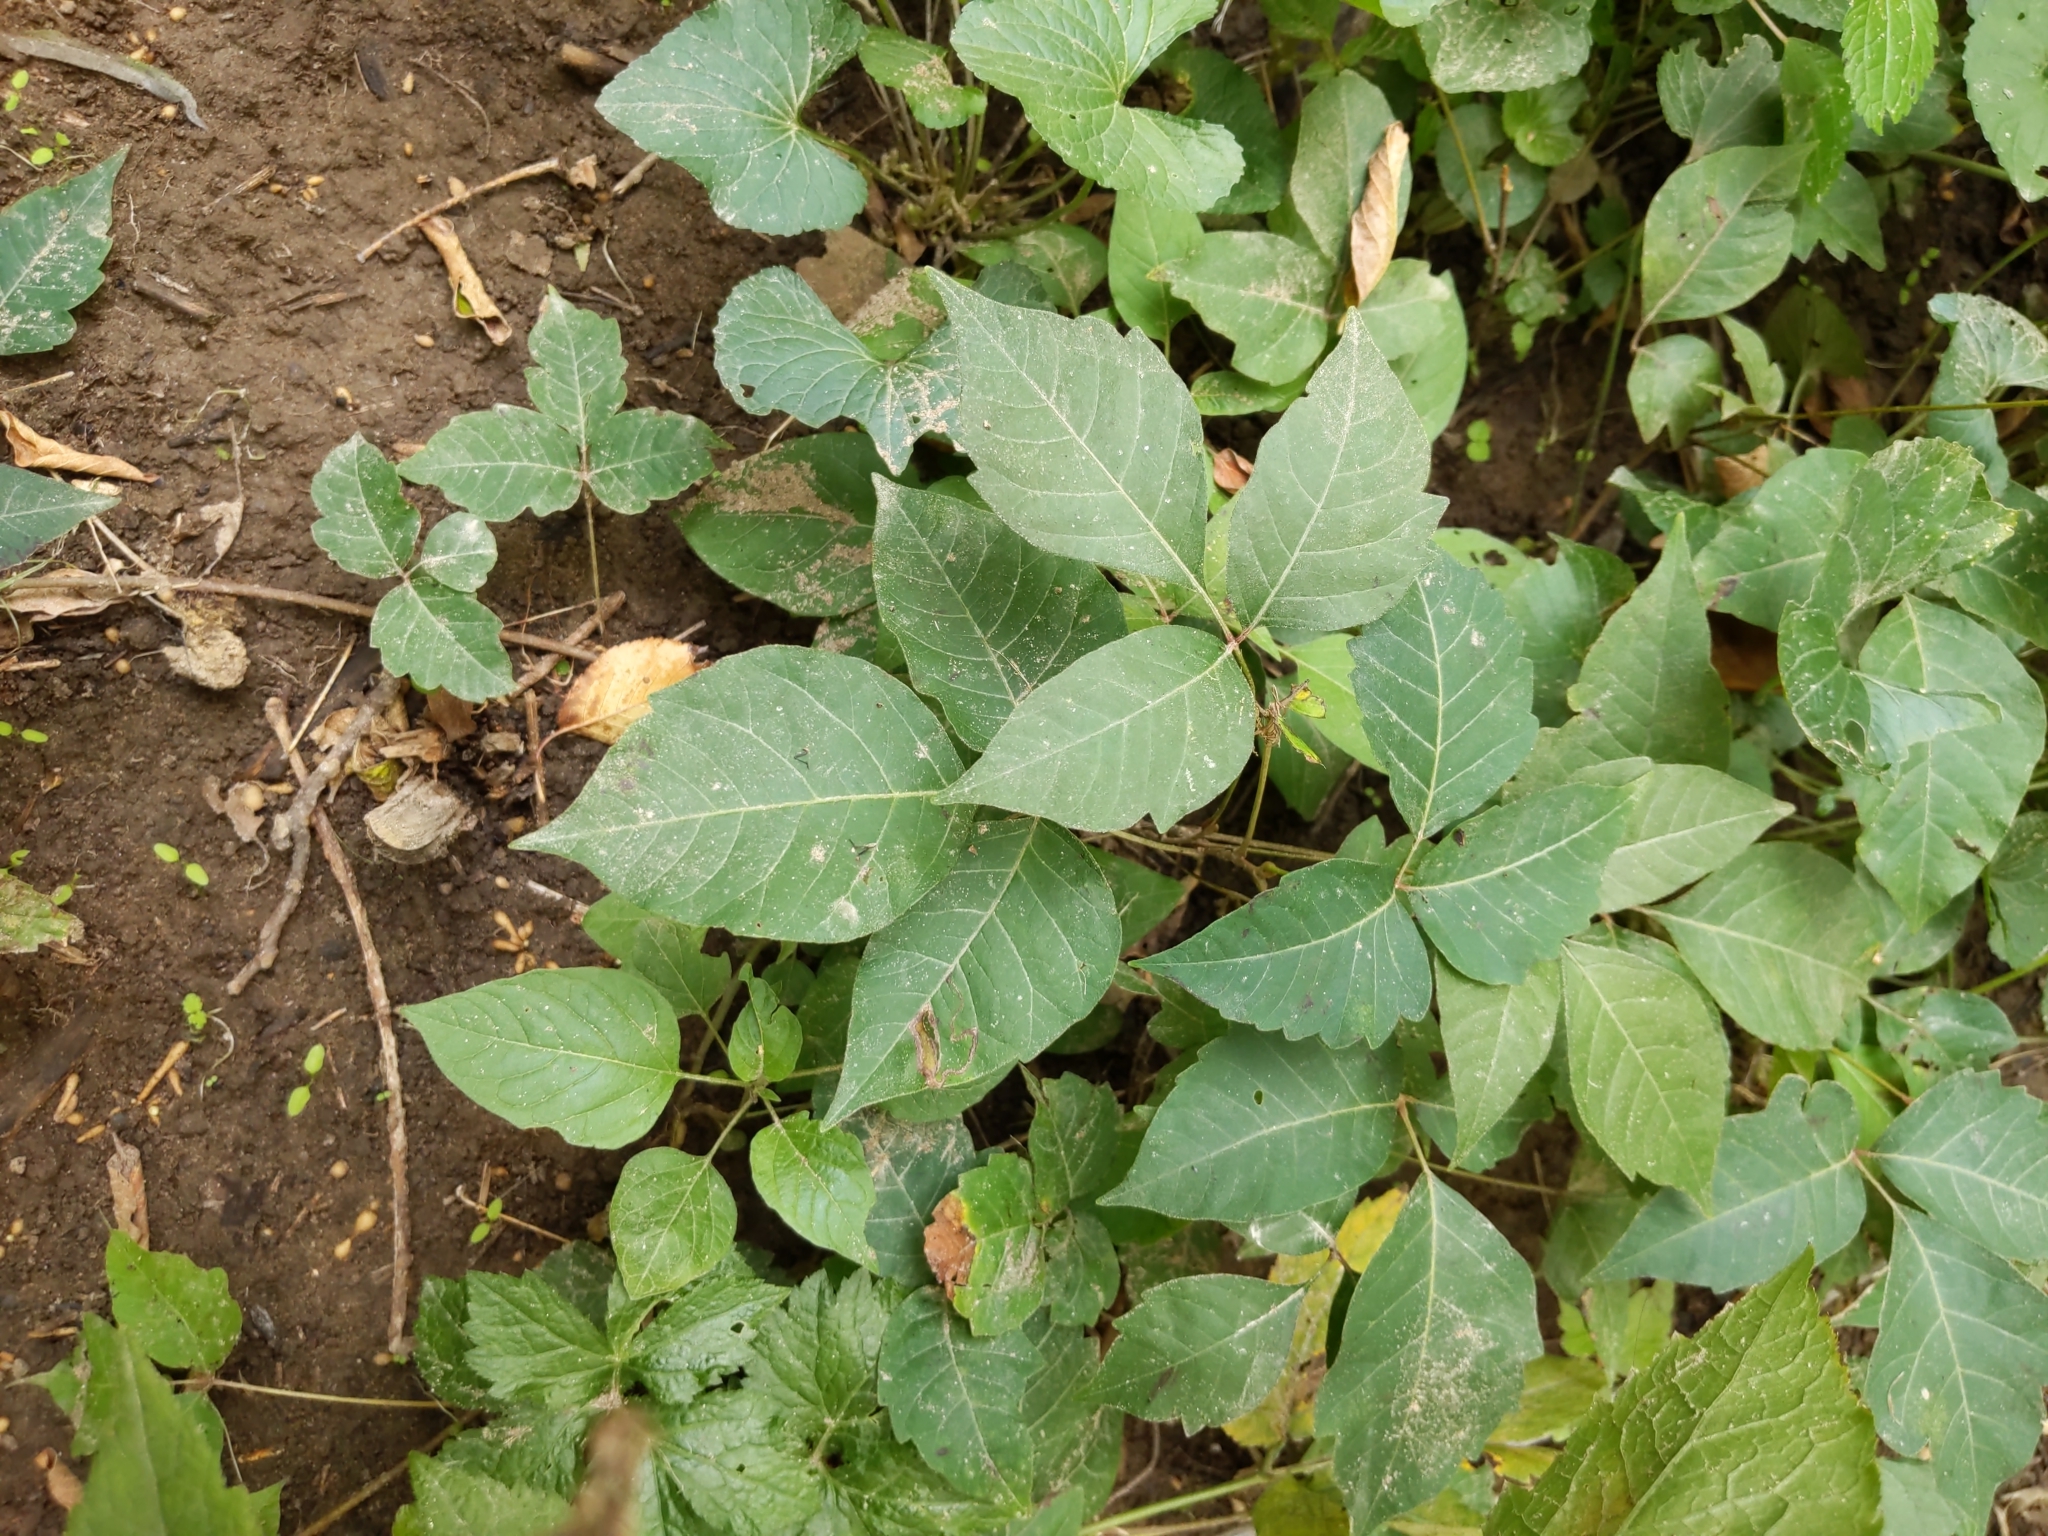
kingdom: Plantae
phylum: Tracheophyta
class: Magnoliopsida
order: Sapindales
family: Anacardiaceae
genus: Toxicodendron
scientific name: Toxicodendron radicans
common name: Poison ivy
